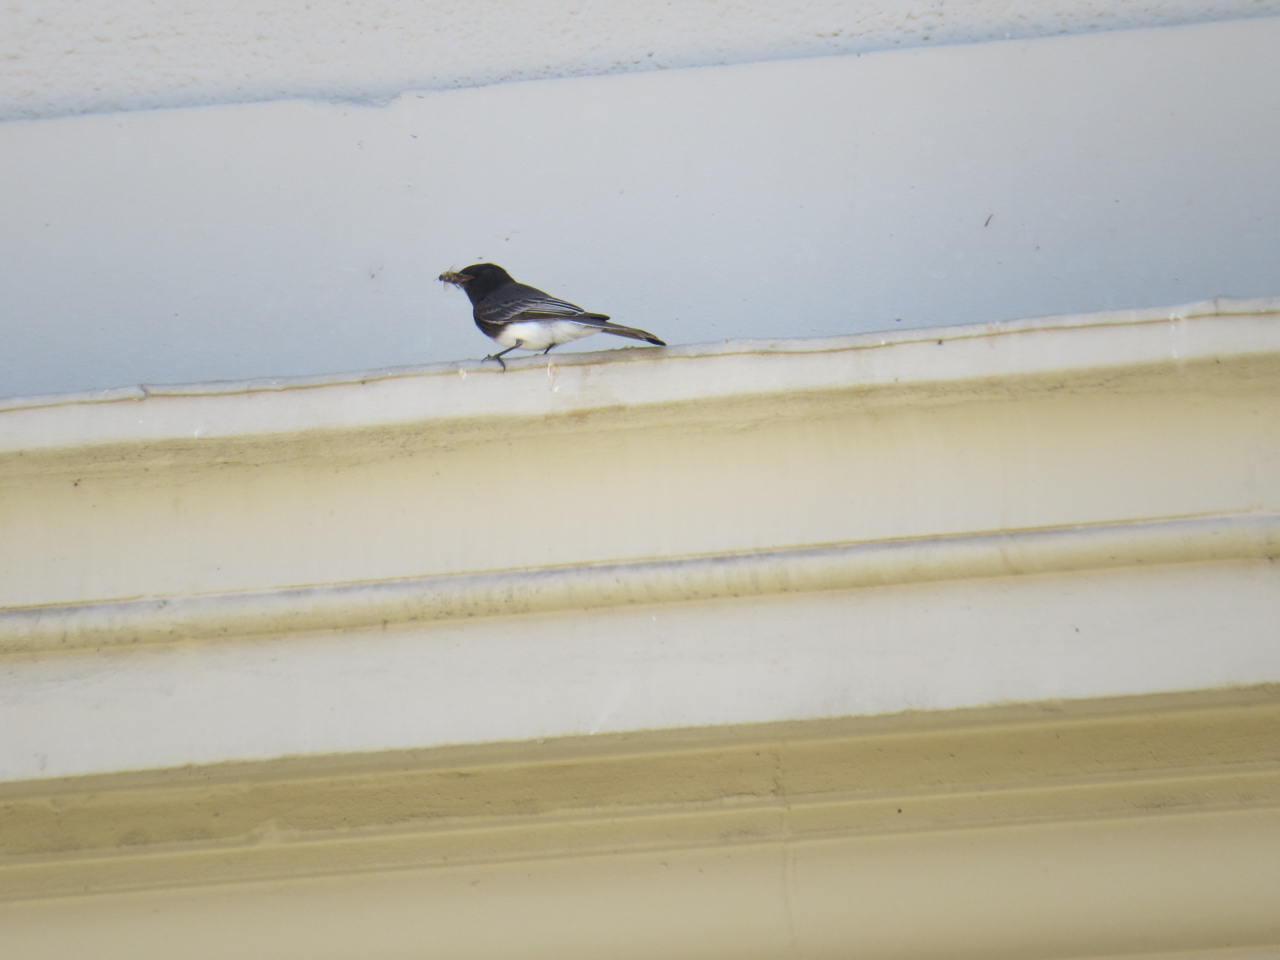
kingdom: Animalia
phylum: Chordata
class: Aves
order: Passeriformes
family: Tyrannidae
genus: Sayornis
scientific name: Sayornis nigricans
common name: Black phoebe
